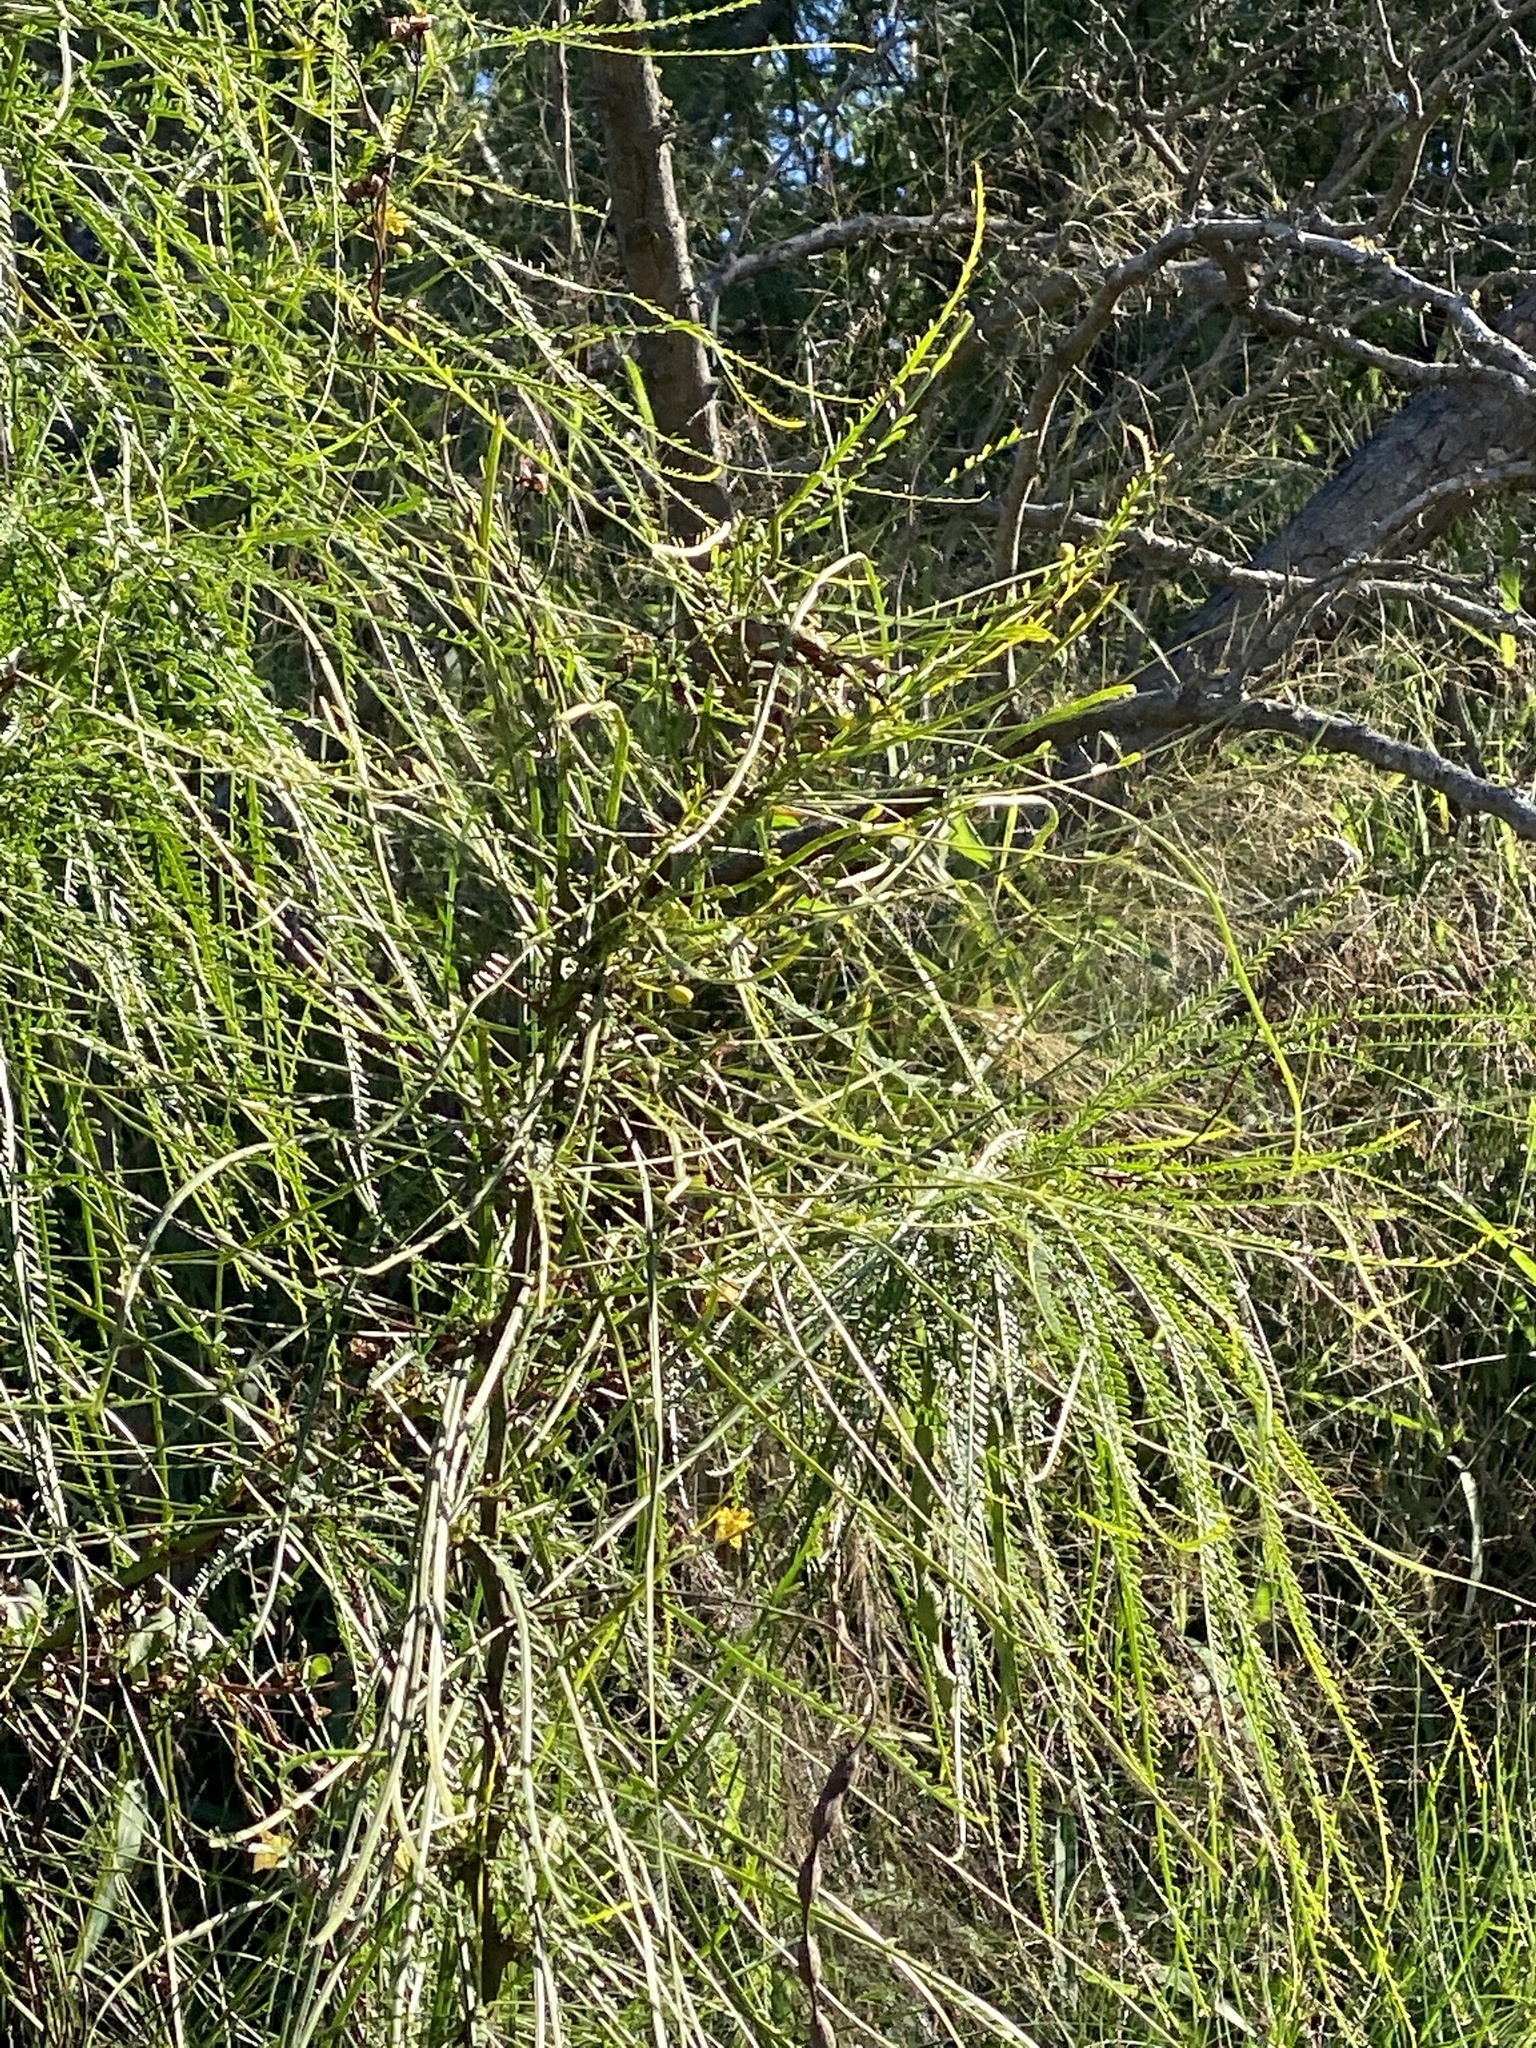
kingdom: Plantae
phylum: Tracheophyta
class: Magnoliopsida
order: Fabales
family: Fabaceae
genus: Parkinsonia
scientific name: Parkinsonia aculeata
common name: Jerusalem thorn
